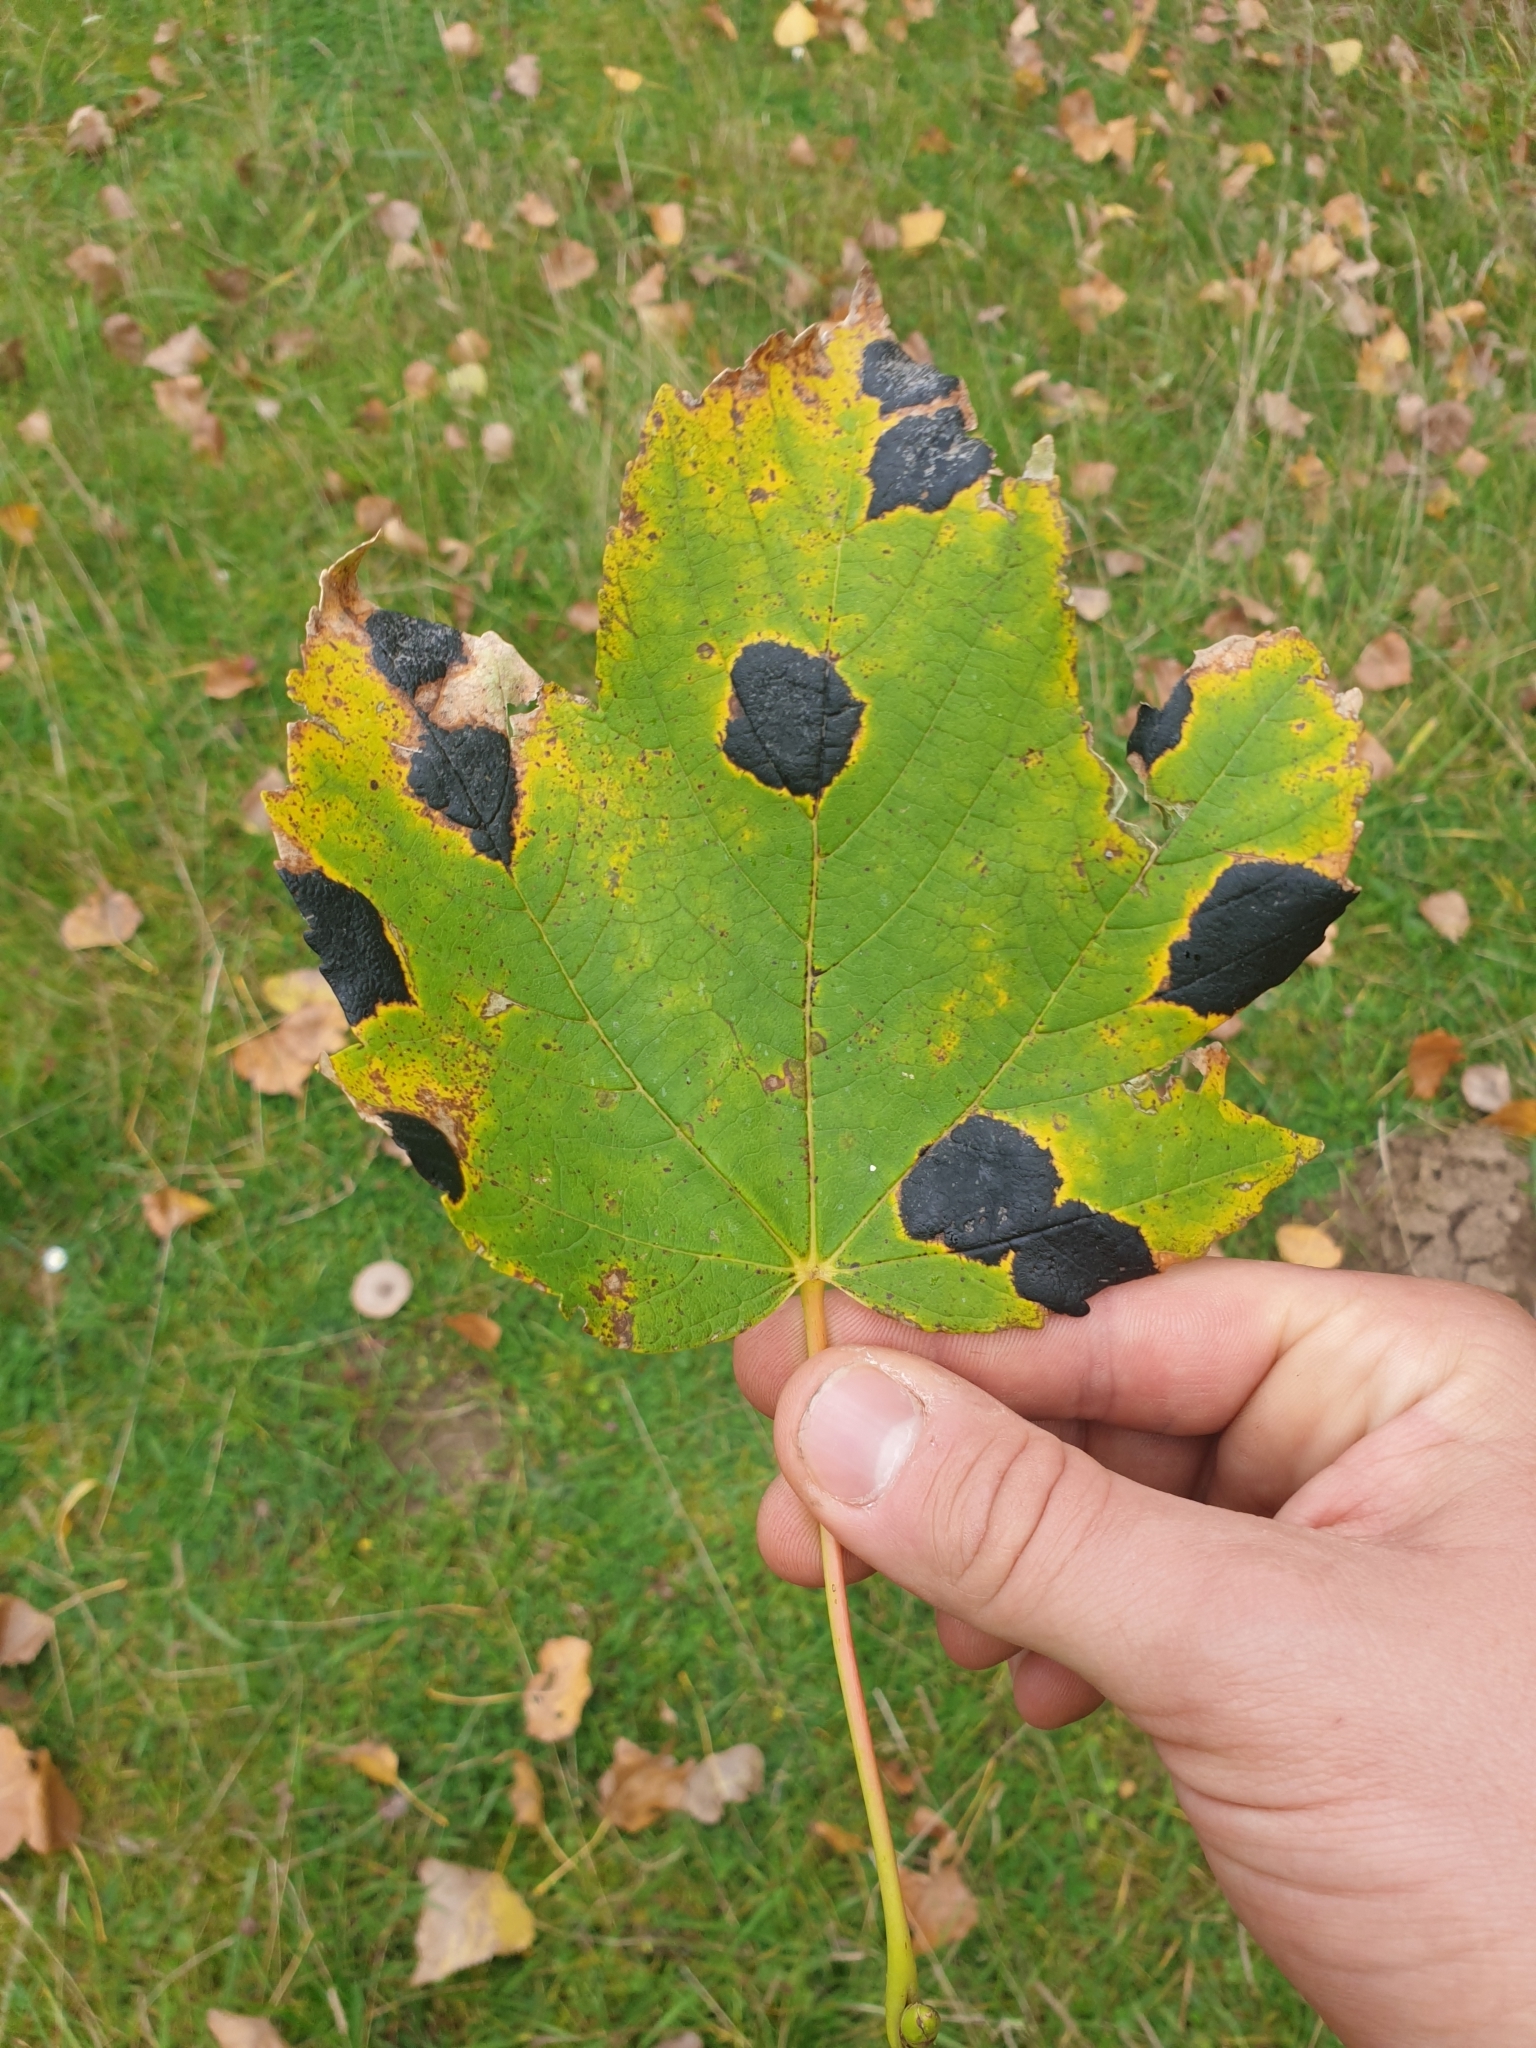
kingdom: Fungi
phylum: Ascomycota
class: Leotiomycetes
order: Rhytismatales
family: Rhytismataceae
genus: Rhytisma
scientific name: Rhytisma acerinum
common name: European tar spot
